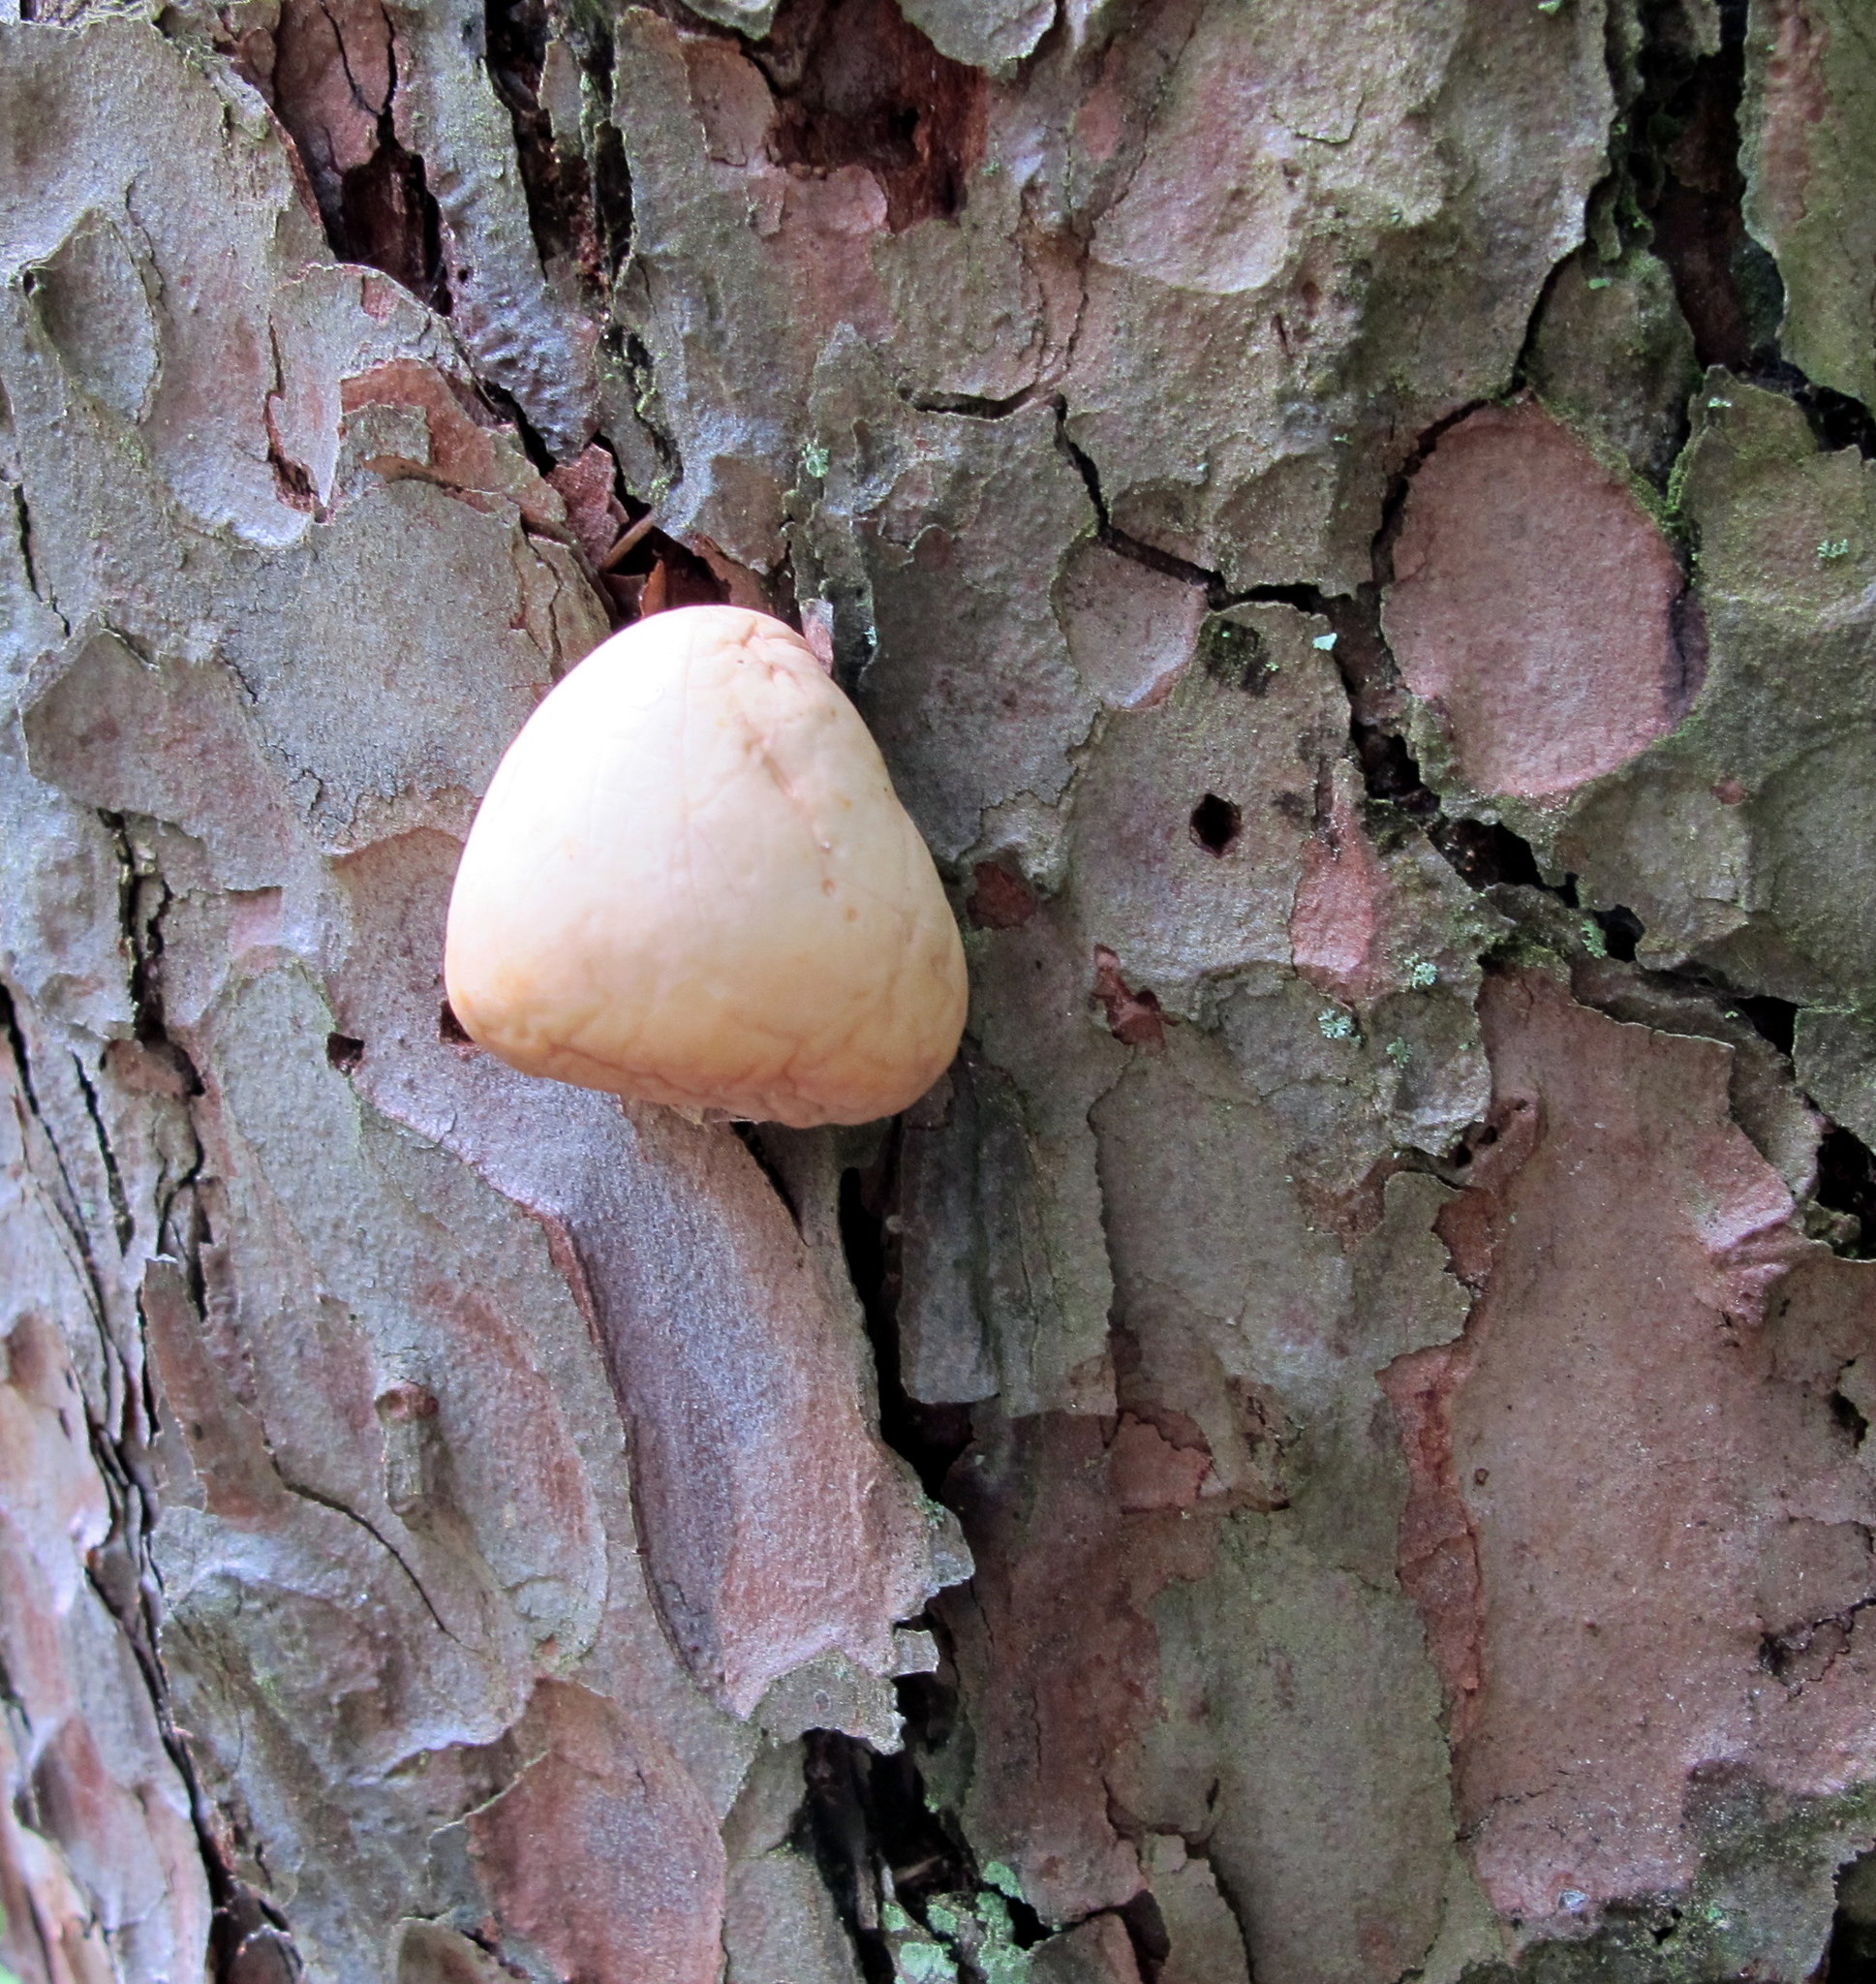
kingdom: Fungi
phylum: Basidiomycota
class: Agaricomycetes
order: Polyporales
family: Polyporaceae
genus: Cryptoporus
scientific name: Cryptoporus volvatus
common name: Veiled polypore
